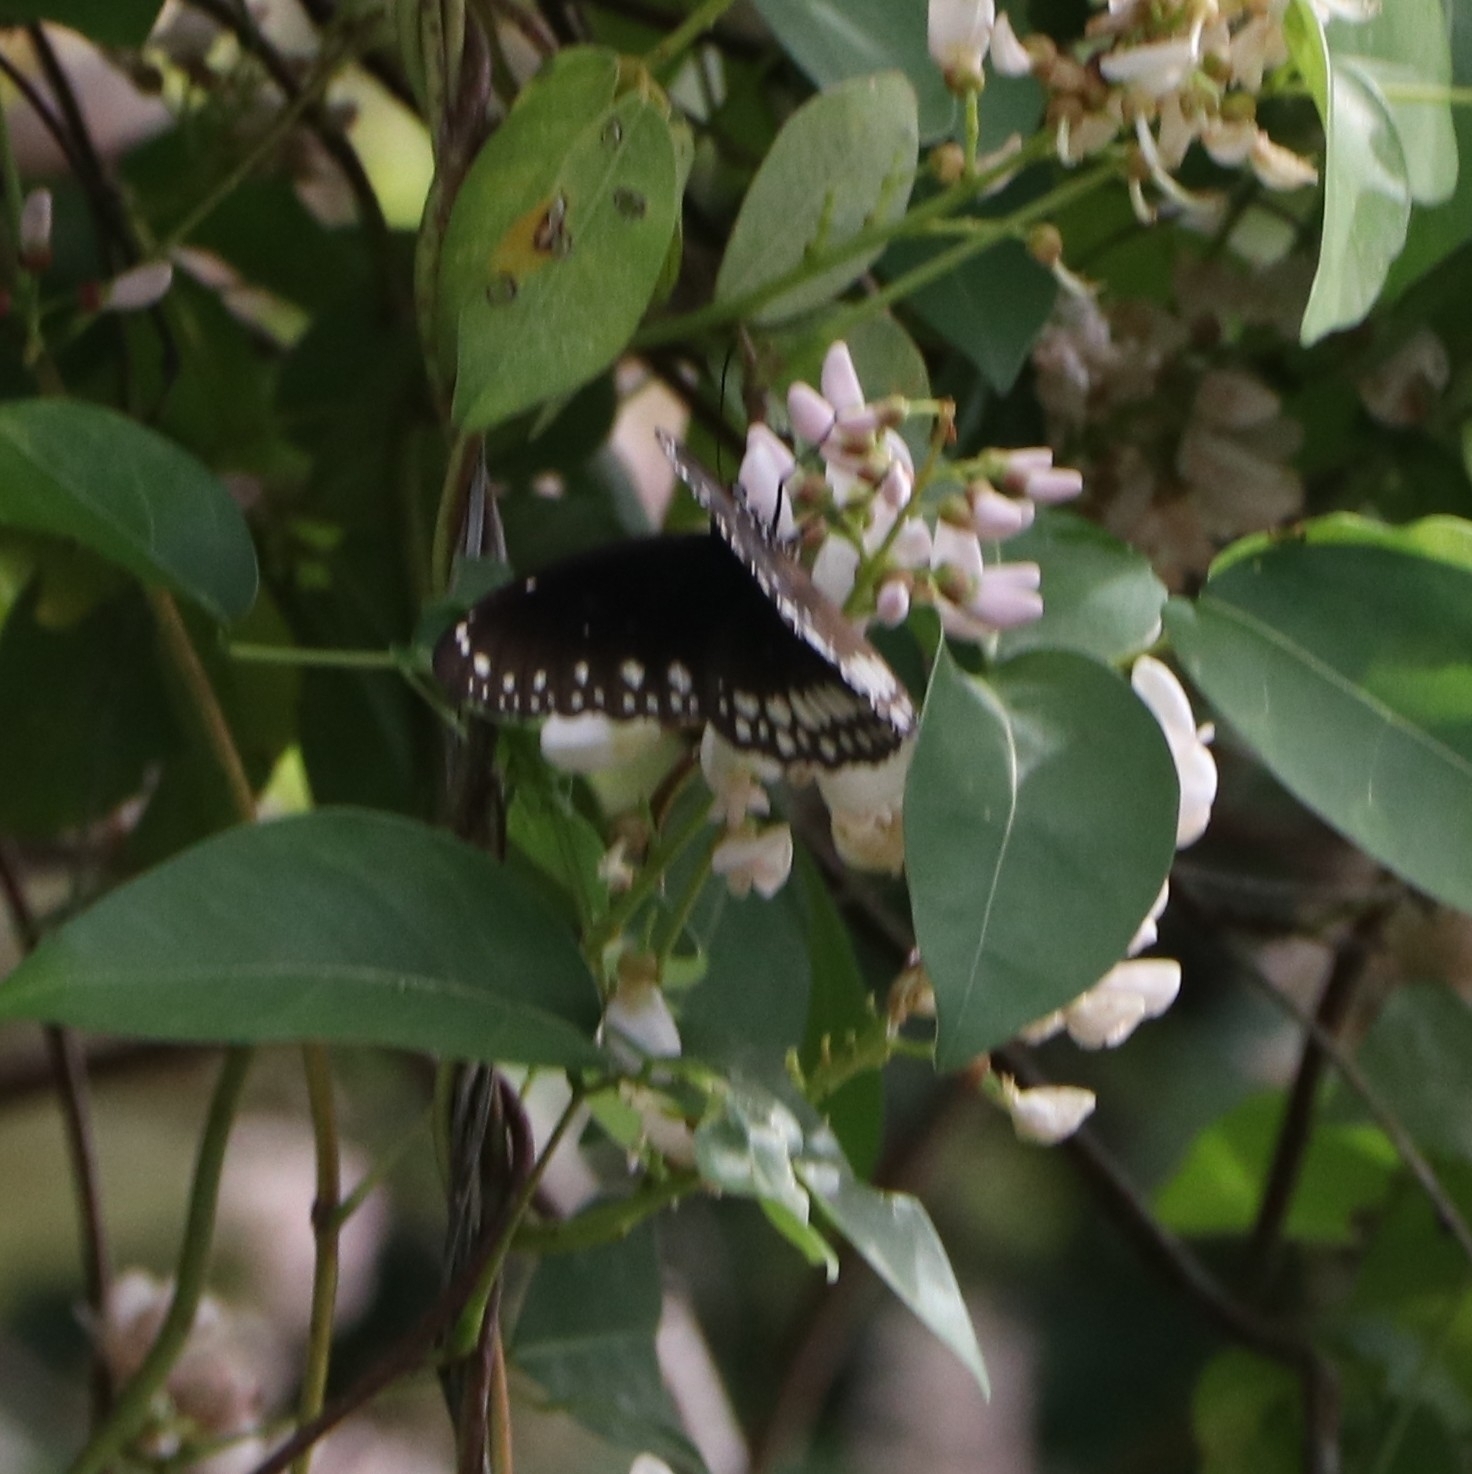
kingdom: Animalia
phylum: Arthropoda
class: Insecta
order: Lepidoptera
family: Nymphalidae
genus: Euploea
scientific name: Euploea core
